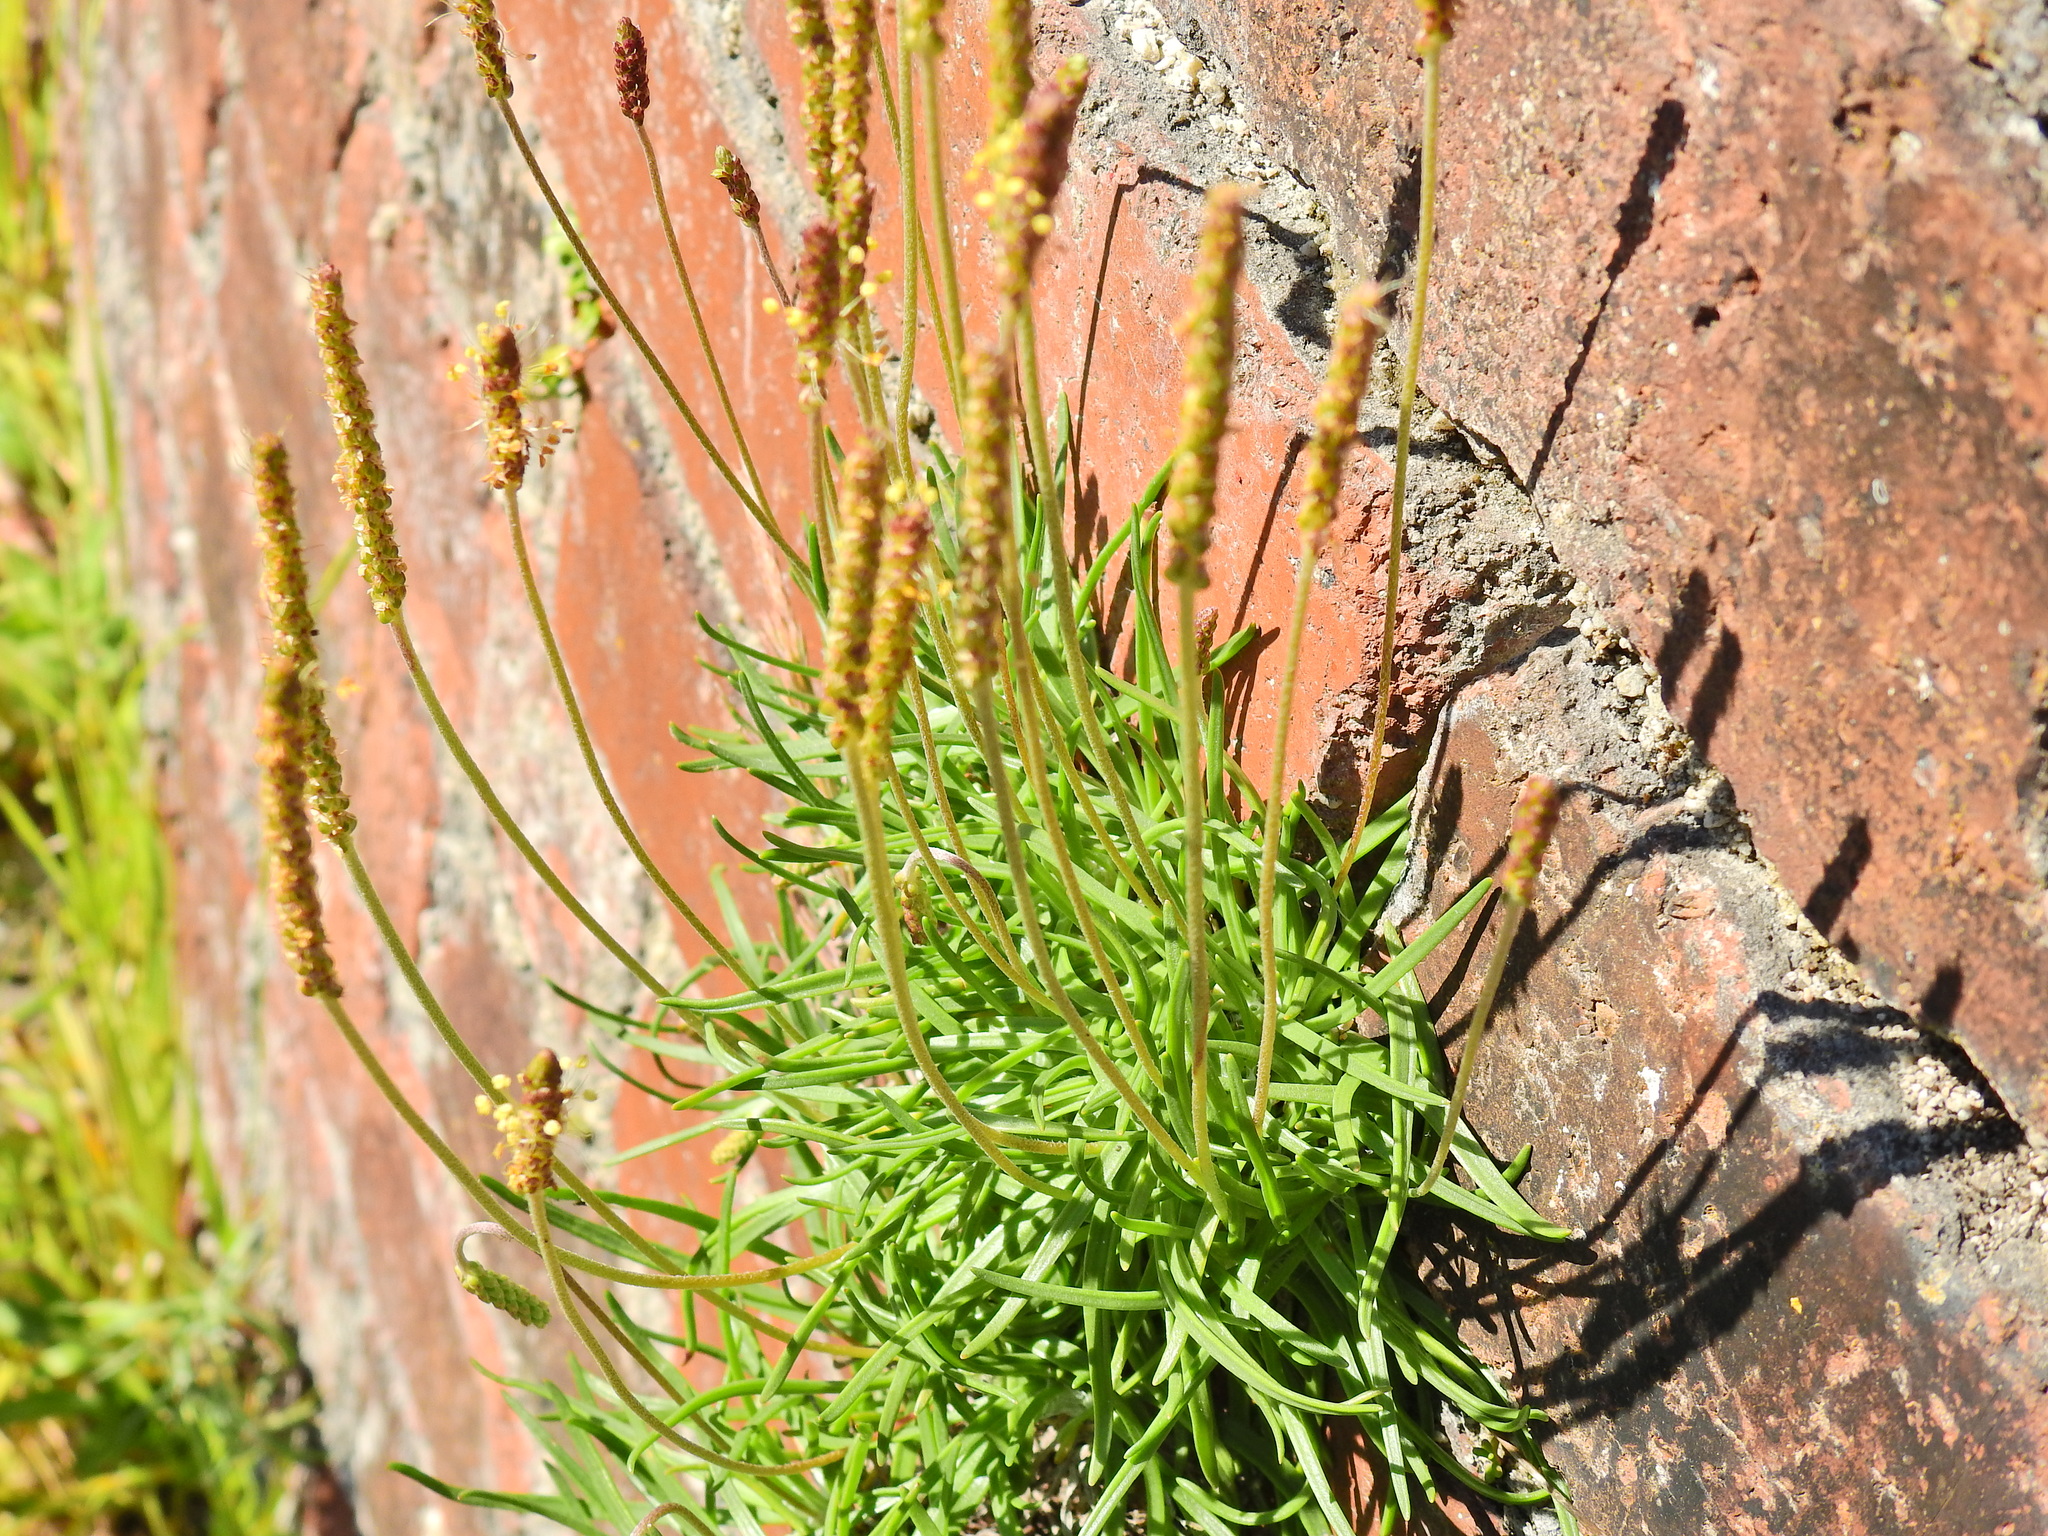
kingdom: Plantae
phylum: Tracheophyta
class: Magnoliopsida
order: Lamiales
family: Plantaginaceae
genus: Plantago
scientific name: Plantago maritima
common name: Sea plantain
